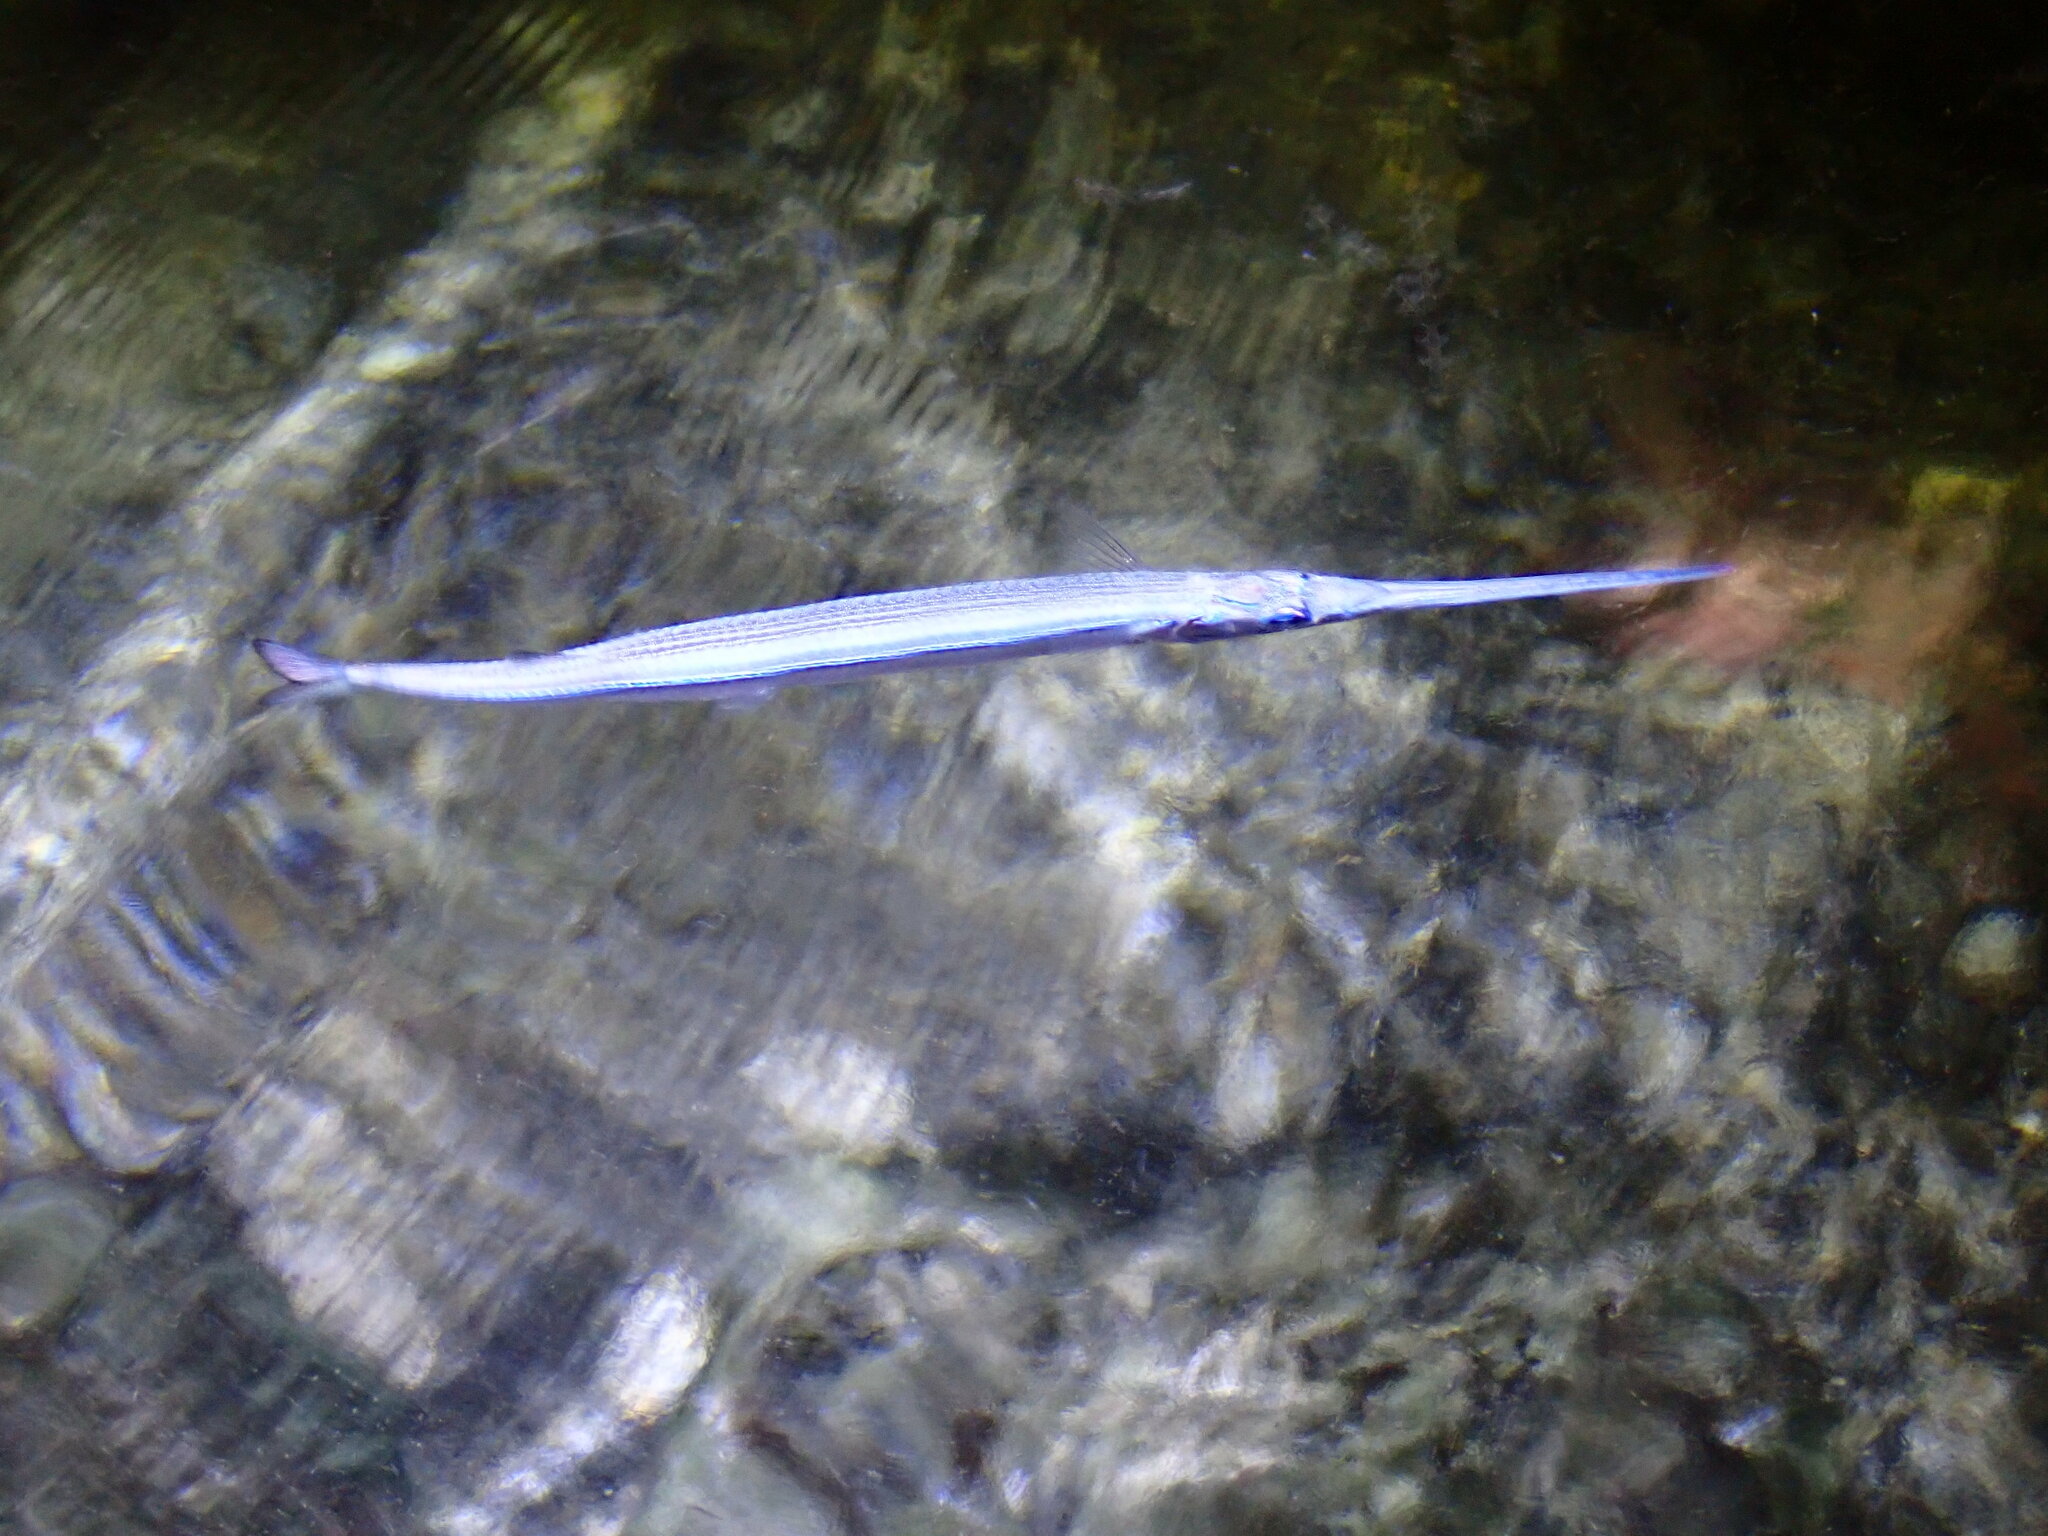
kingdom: Animalia
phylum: Chordata
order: Beloniformes
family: Belonidae
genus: Platybelone
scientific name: Platybelone argalus
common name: Keeltail needlefish
